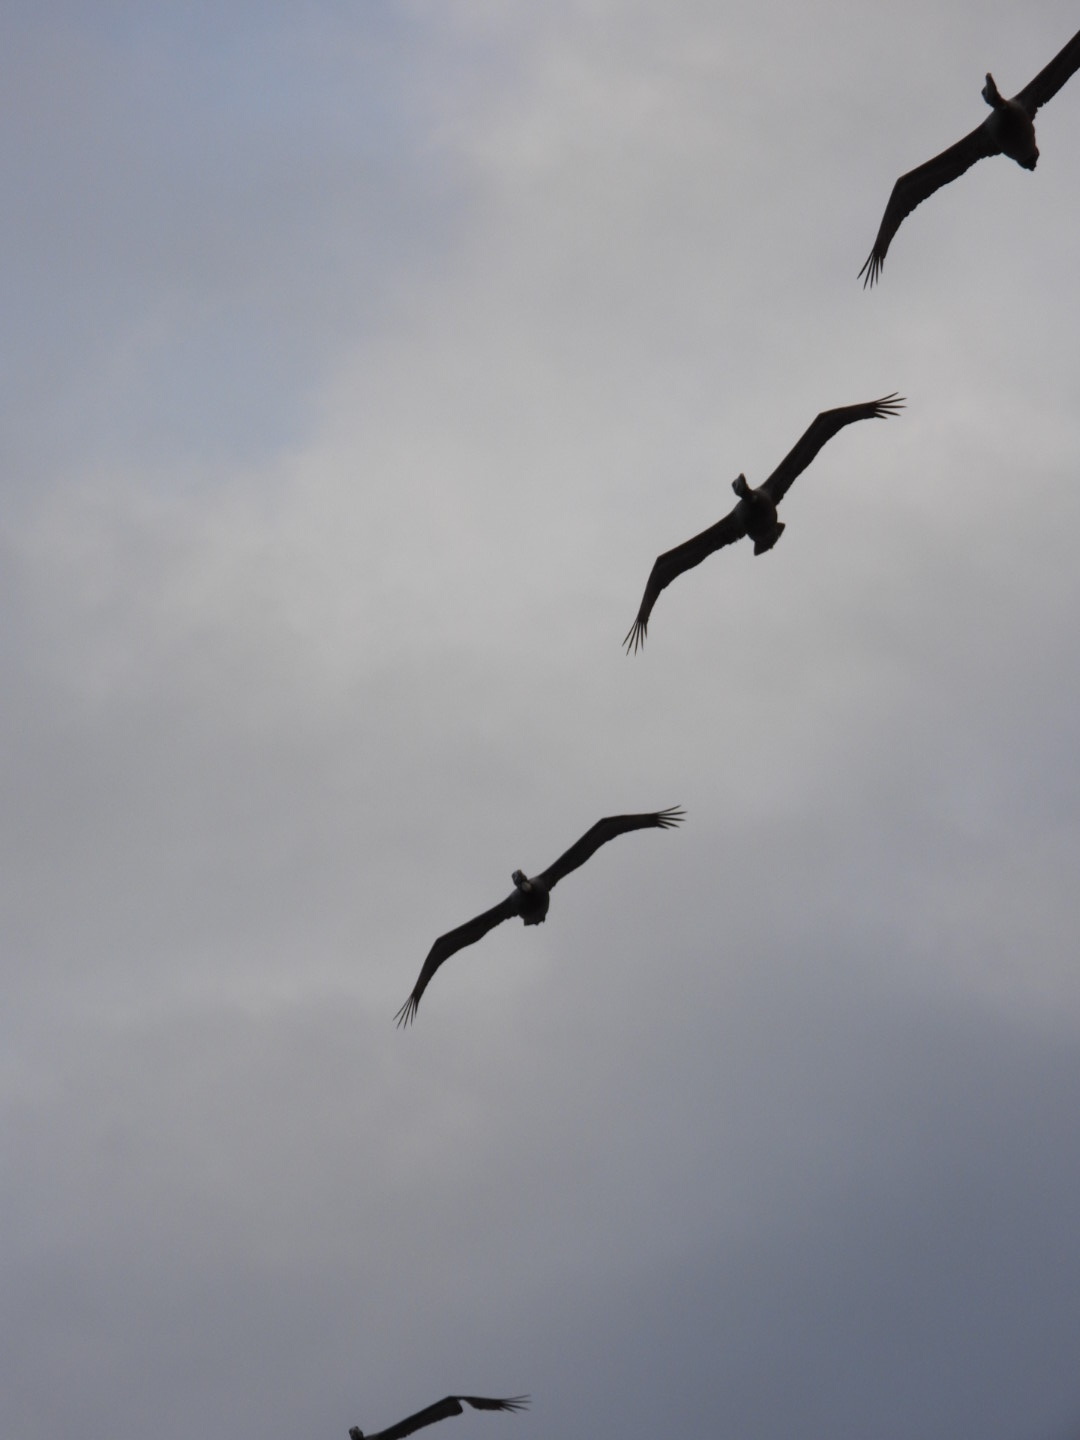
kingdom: Animalia
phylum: Chordata
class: Aves
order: Pelecaniformes
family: Pelecanidae
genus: Pelecanus
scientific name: Pelecanus occidentalis
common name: Brown pelican
